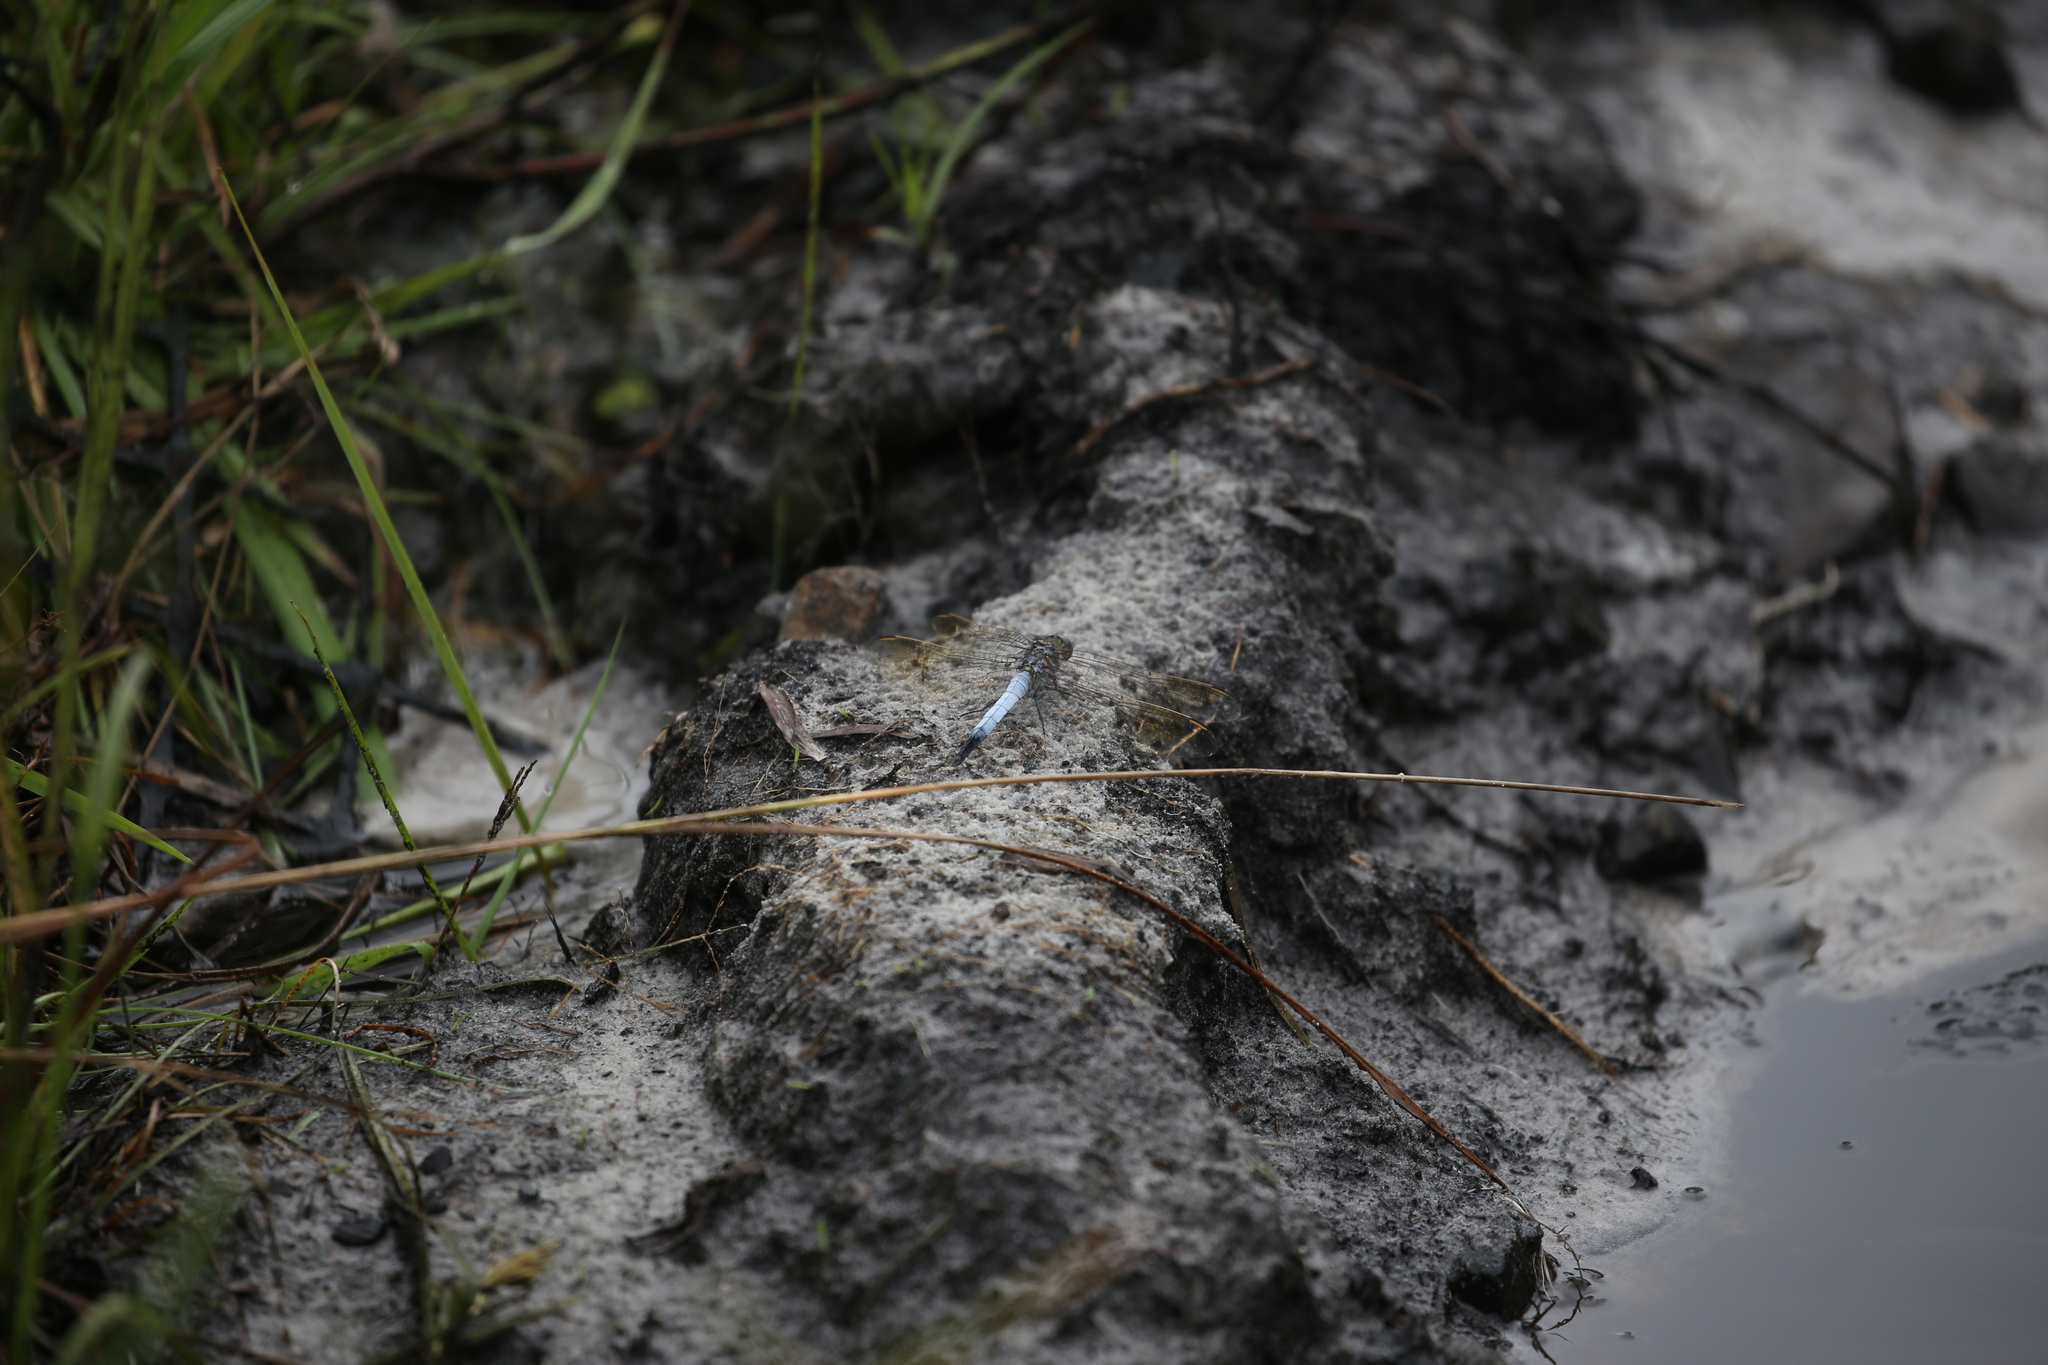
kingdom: Animalia
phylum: Arthropoda
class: Insecta
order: Odonata
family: Libellulidae
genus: Orthetrum
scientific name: Orthetrum caledonicum
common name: Blue skimmer
